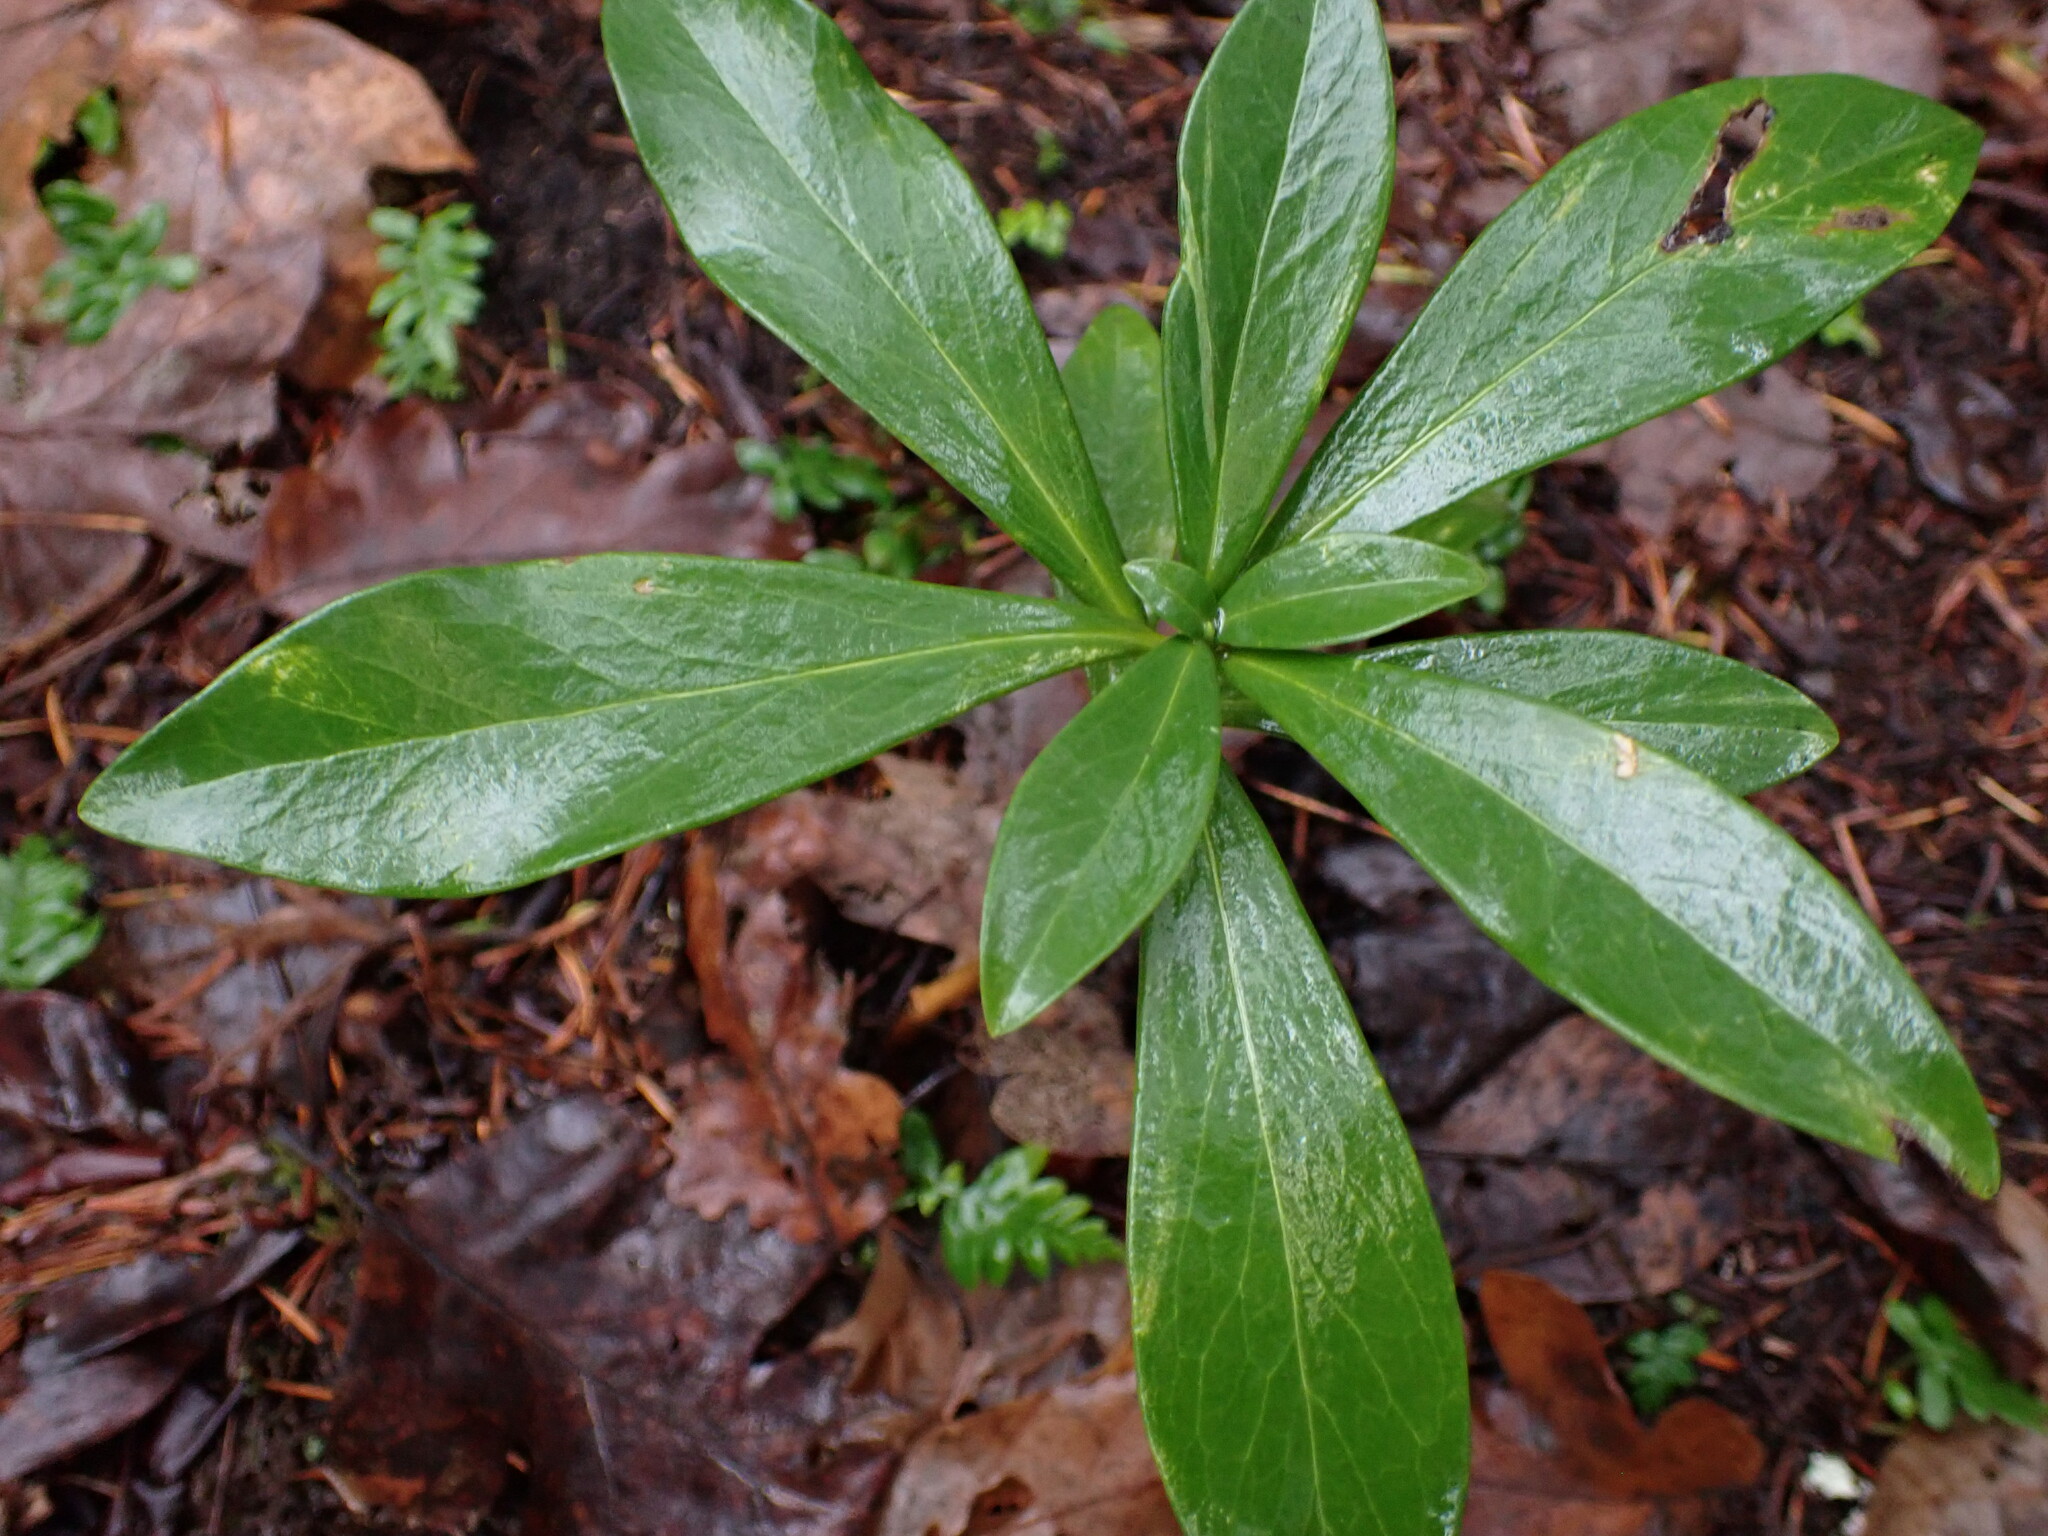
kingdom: Plantae
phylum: Tracheophyta
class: Magnoliopsida
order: Malvales
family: Thymelaeaceae
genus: Daphne
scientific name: Daphne laureola
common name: Spurge-laurel
